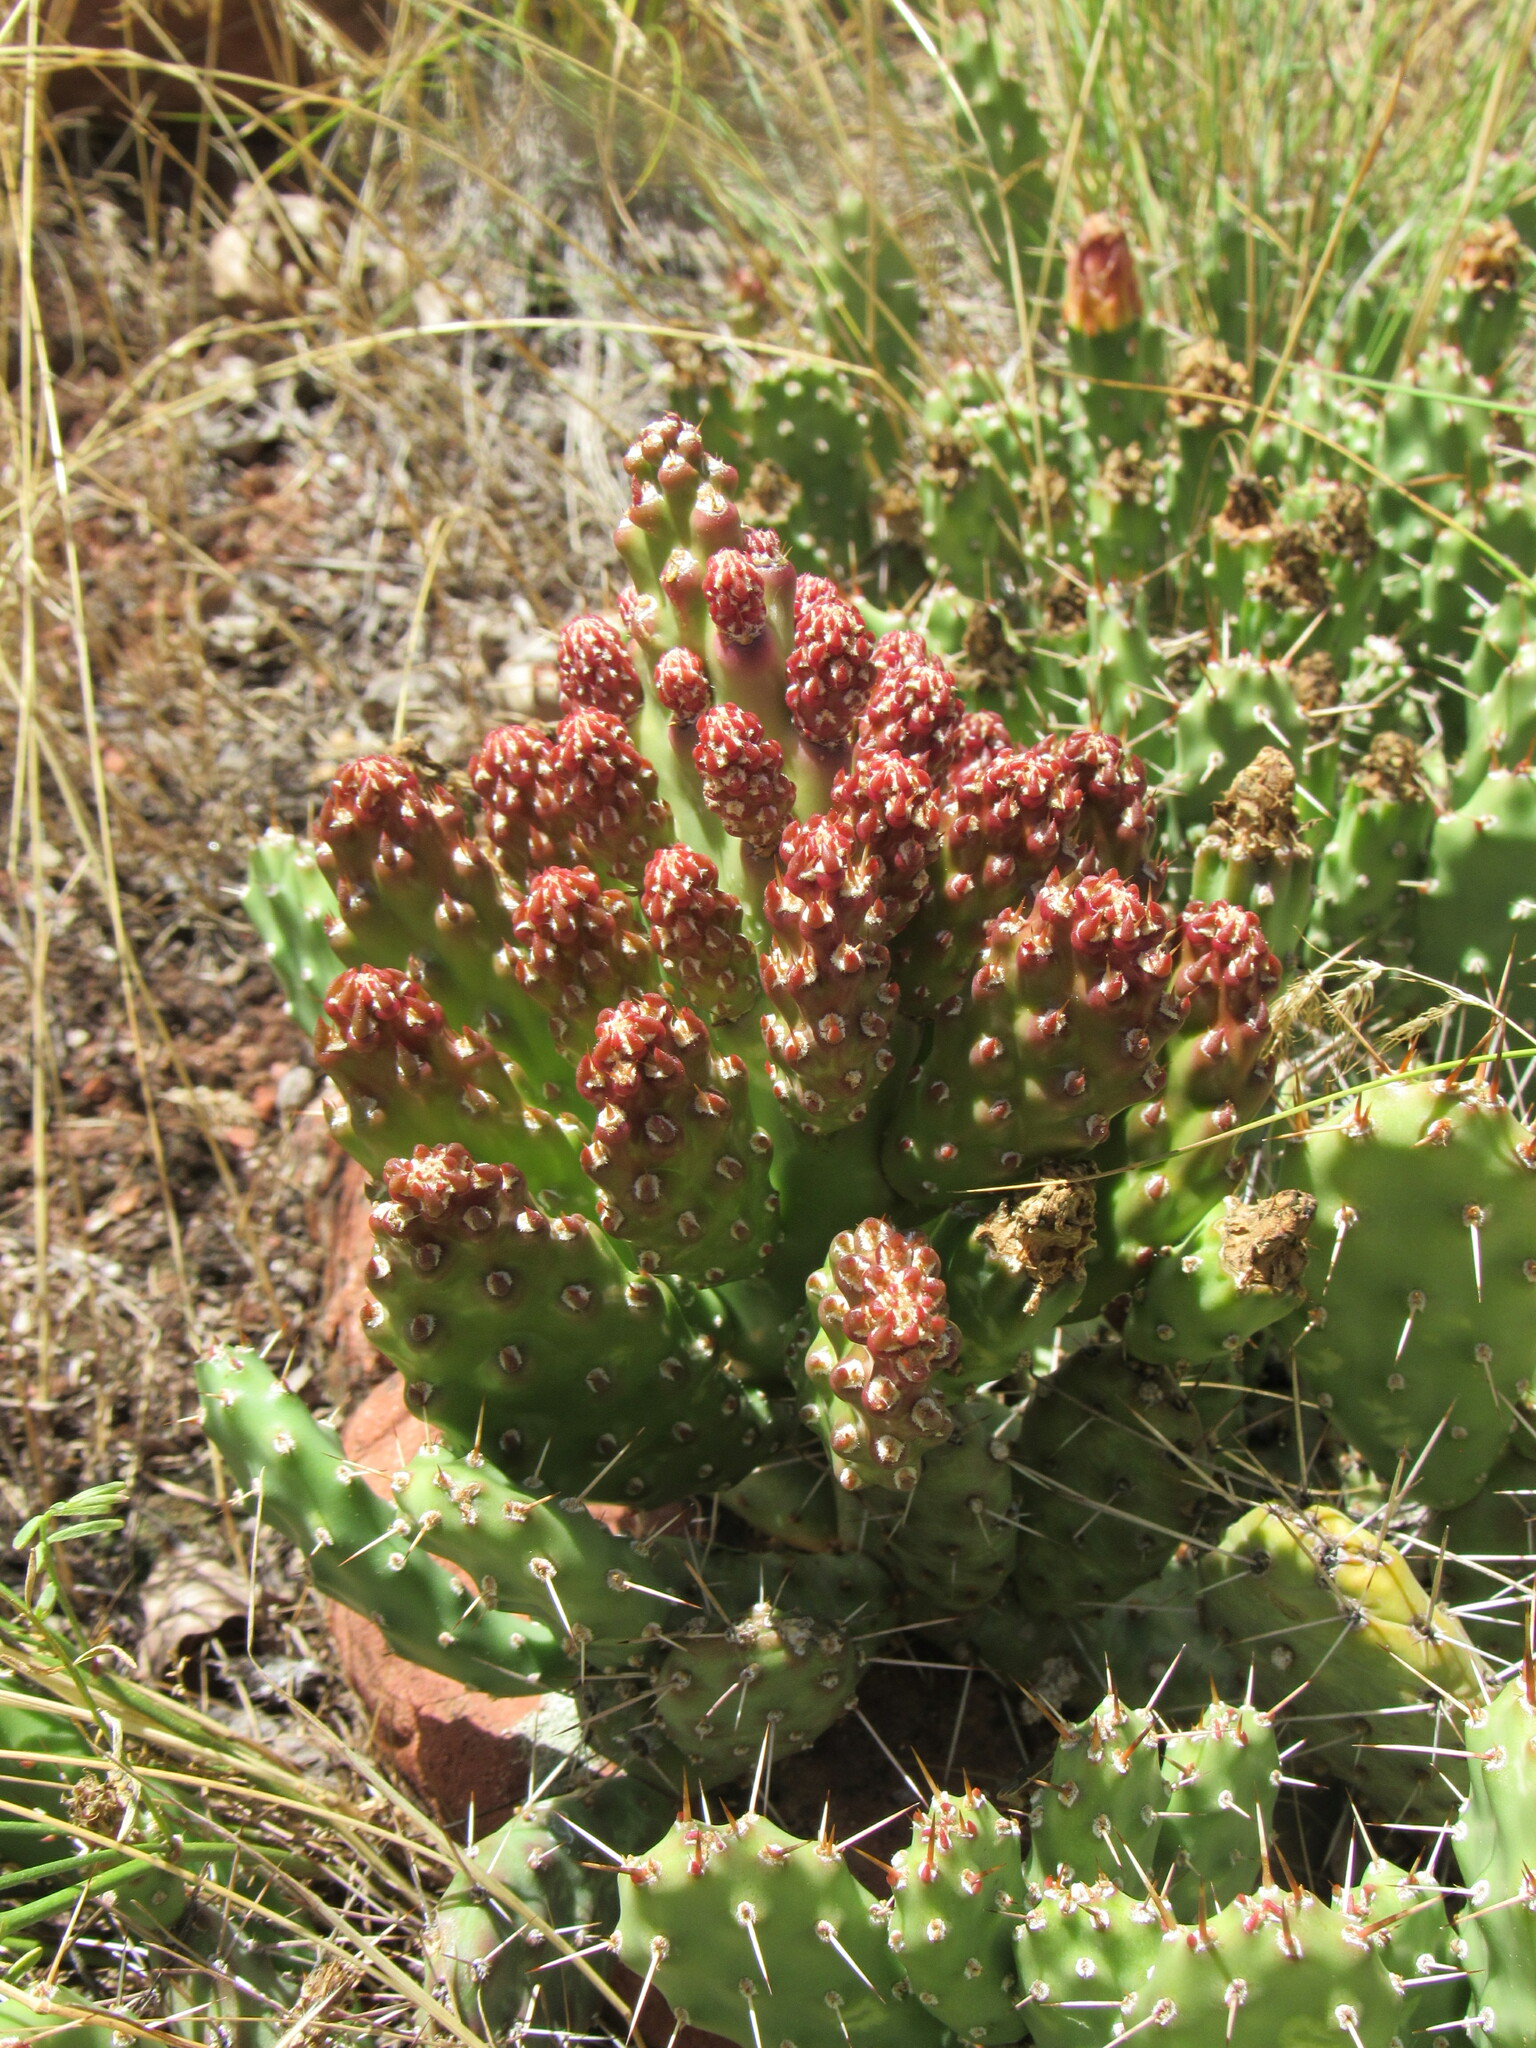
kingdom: Plantae
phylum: Tracheophyta
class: Magnoliopsida
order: Caryophyllales
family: Cactaceae
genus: Opuntia
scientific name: Opuntia fragilis
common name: Brittle cactus
